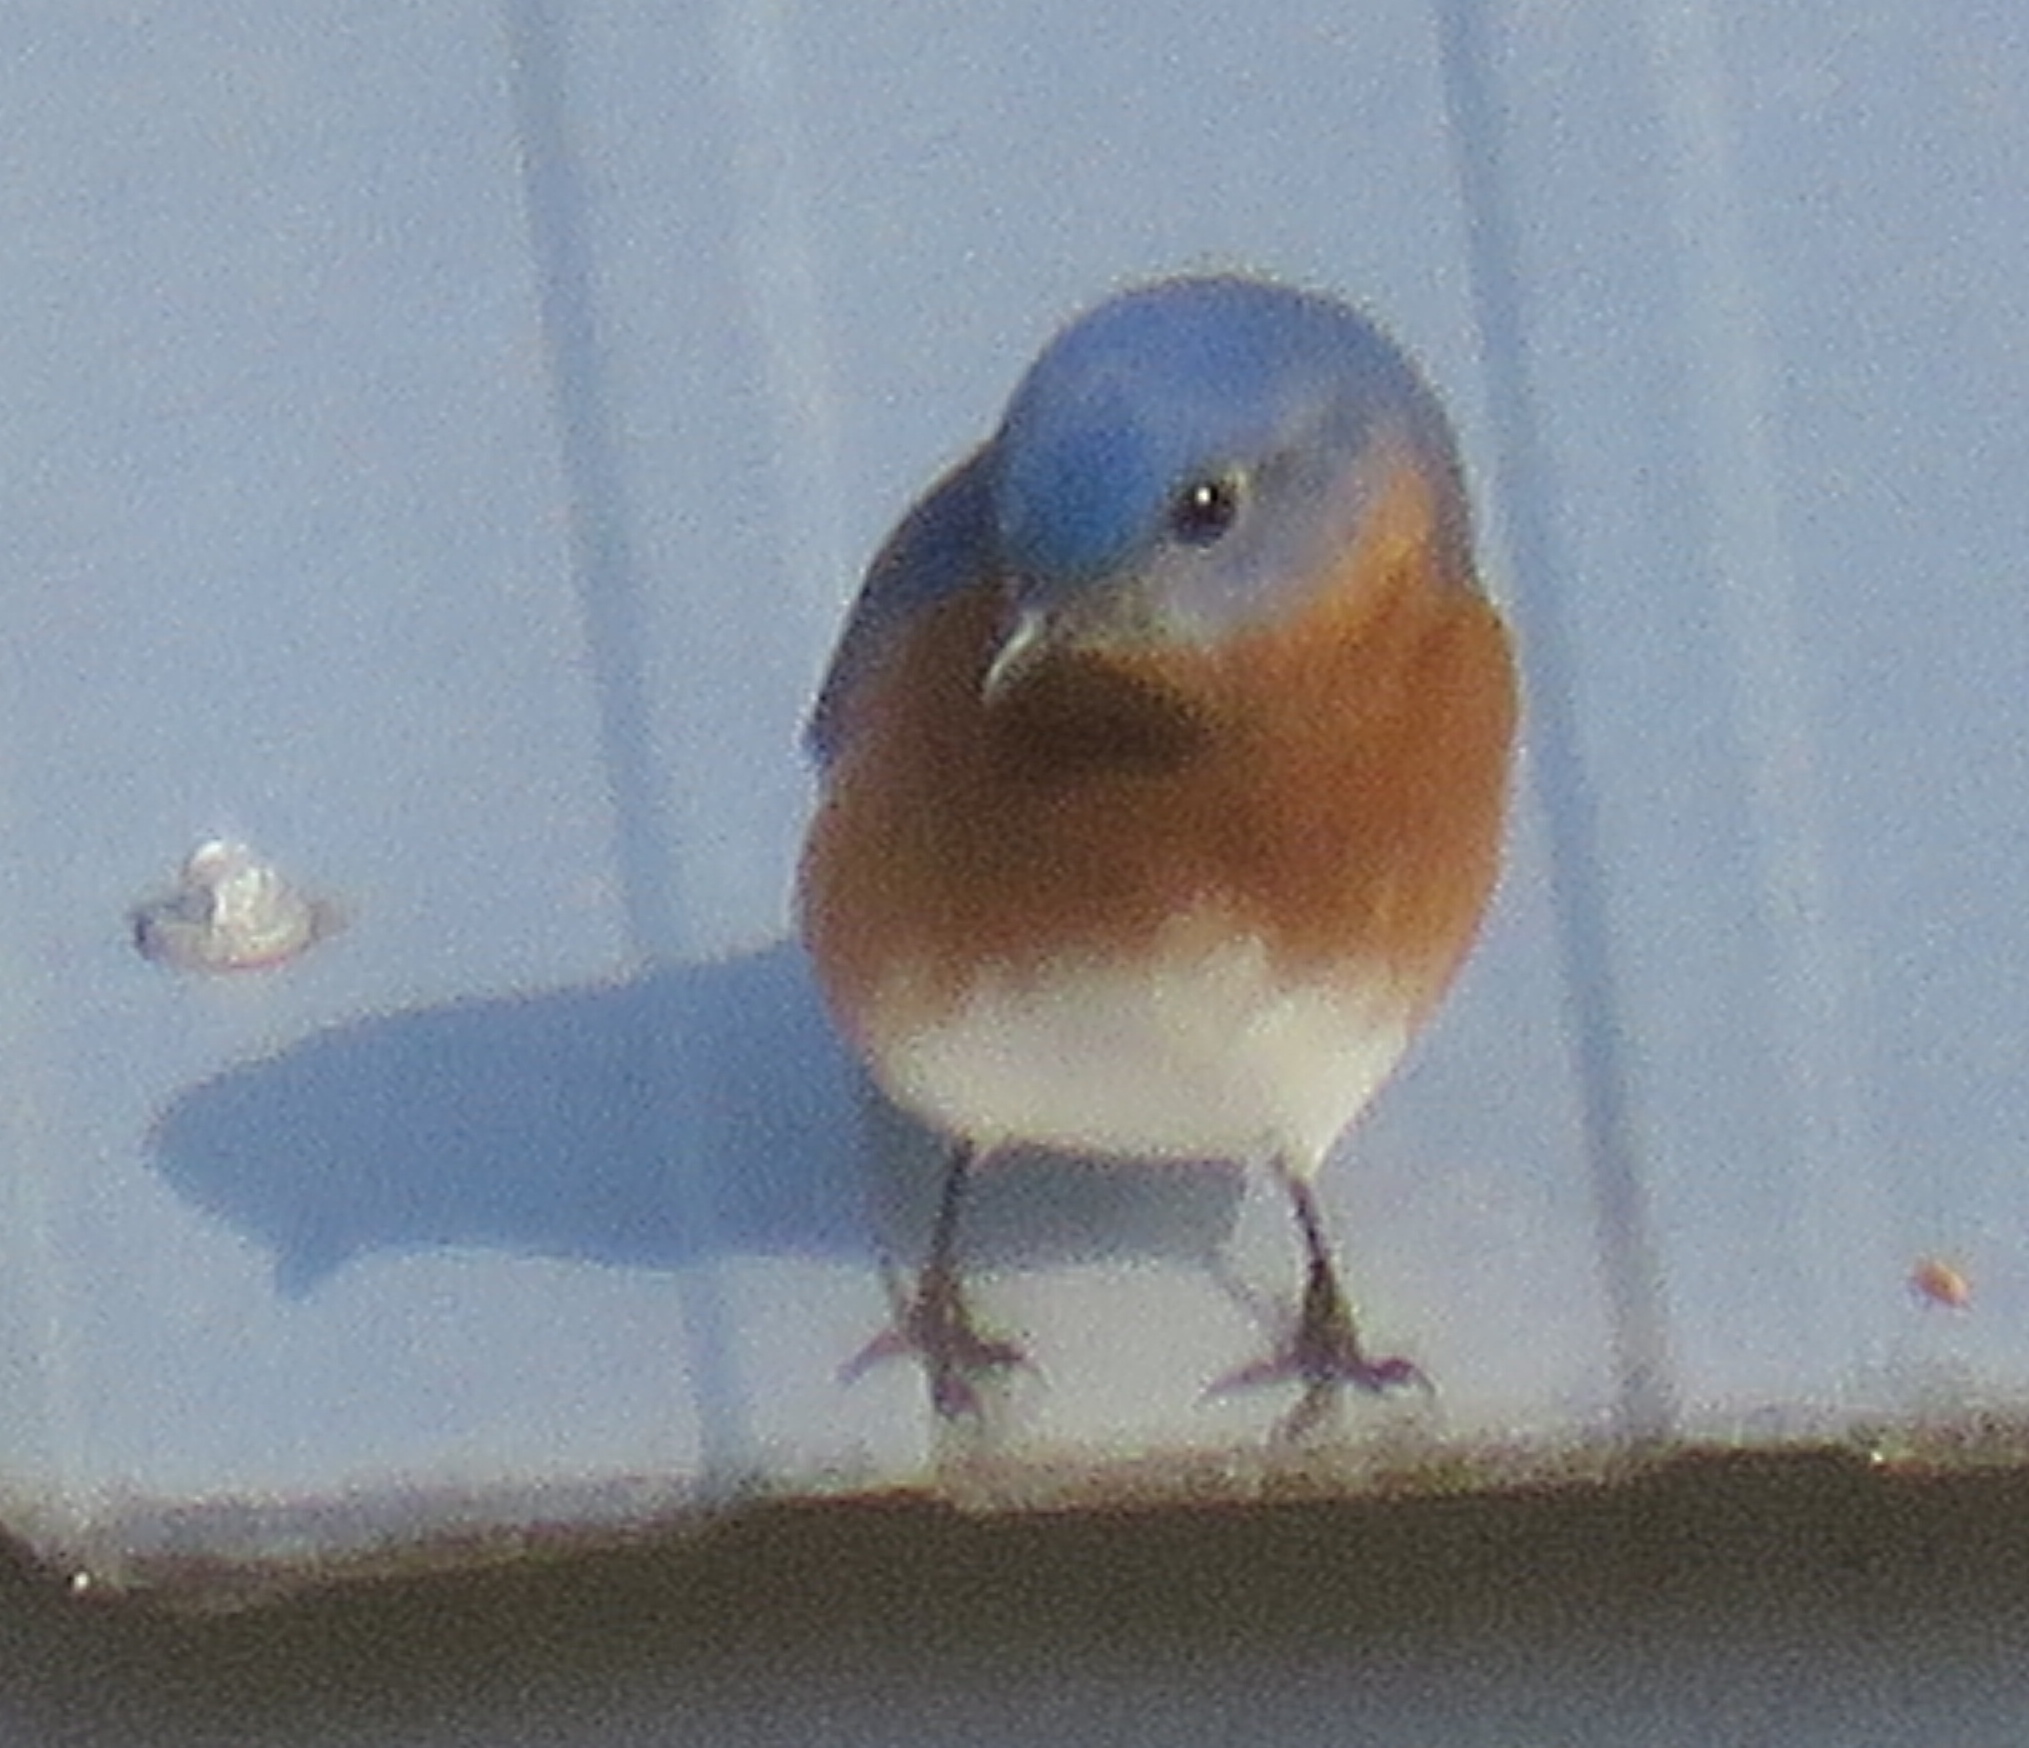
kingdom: Animalia
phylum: Chordata
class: Aves
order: Passeriformes
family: Turdidae
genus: Sialia
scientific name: Sialia sialis
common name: Eastern bluebird
